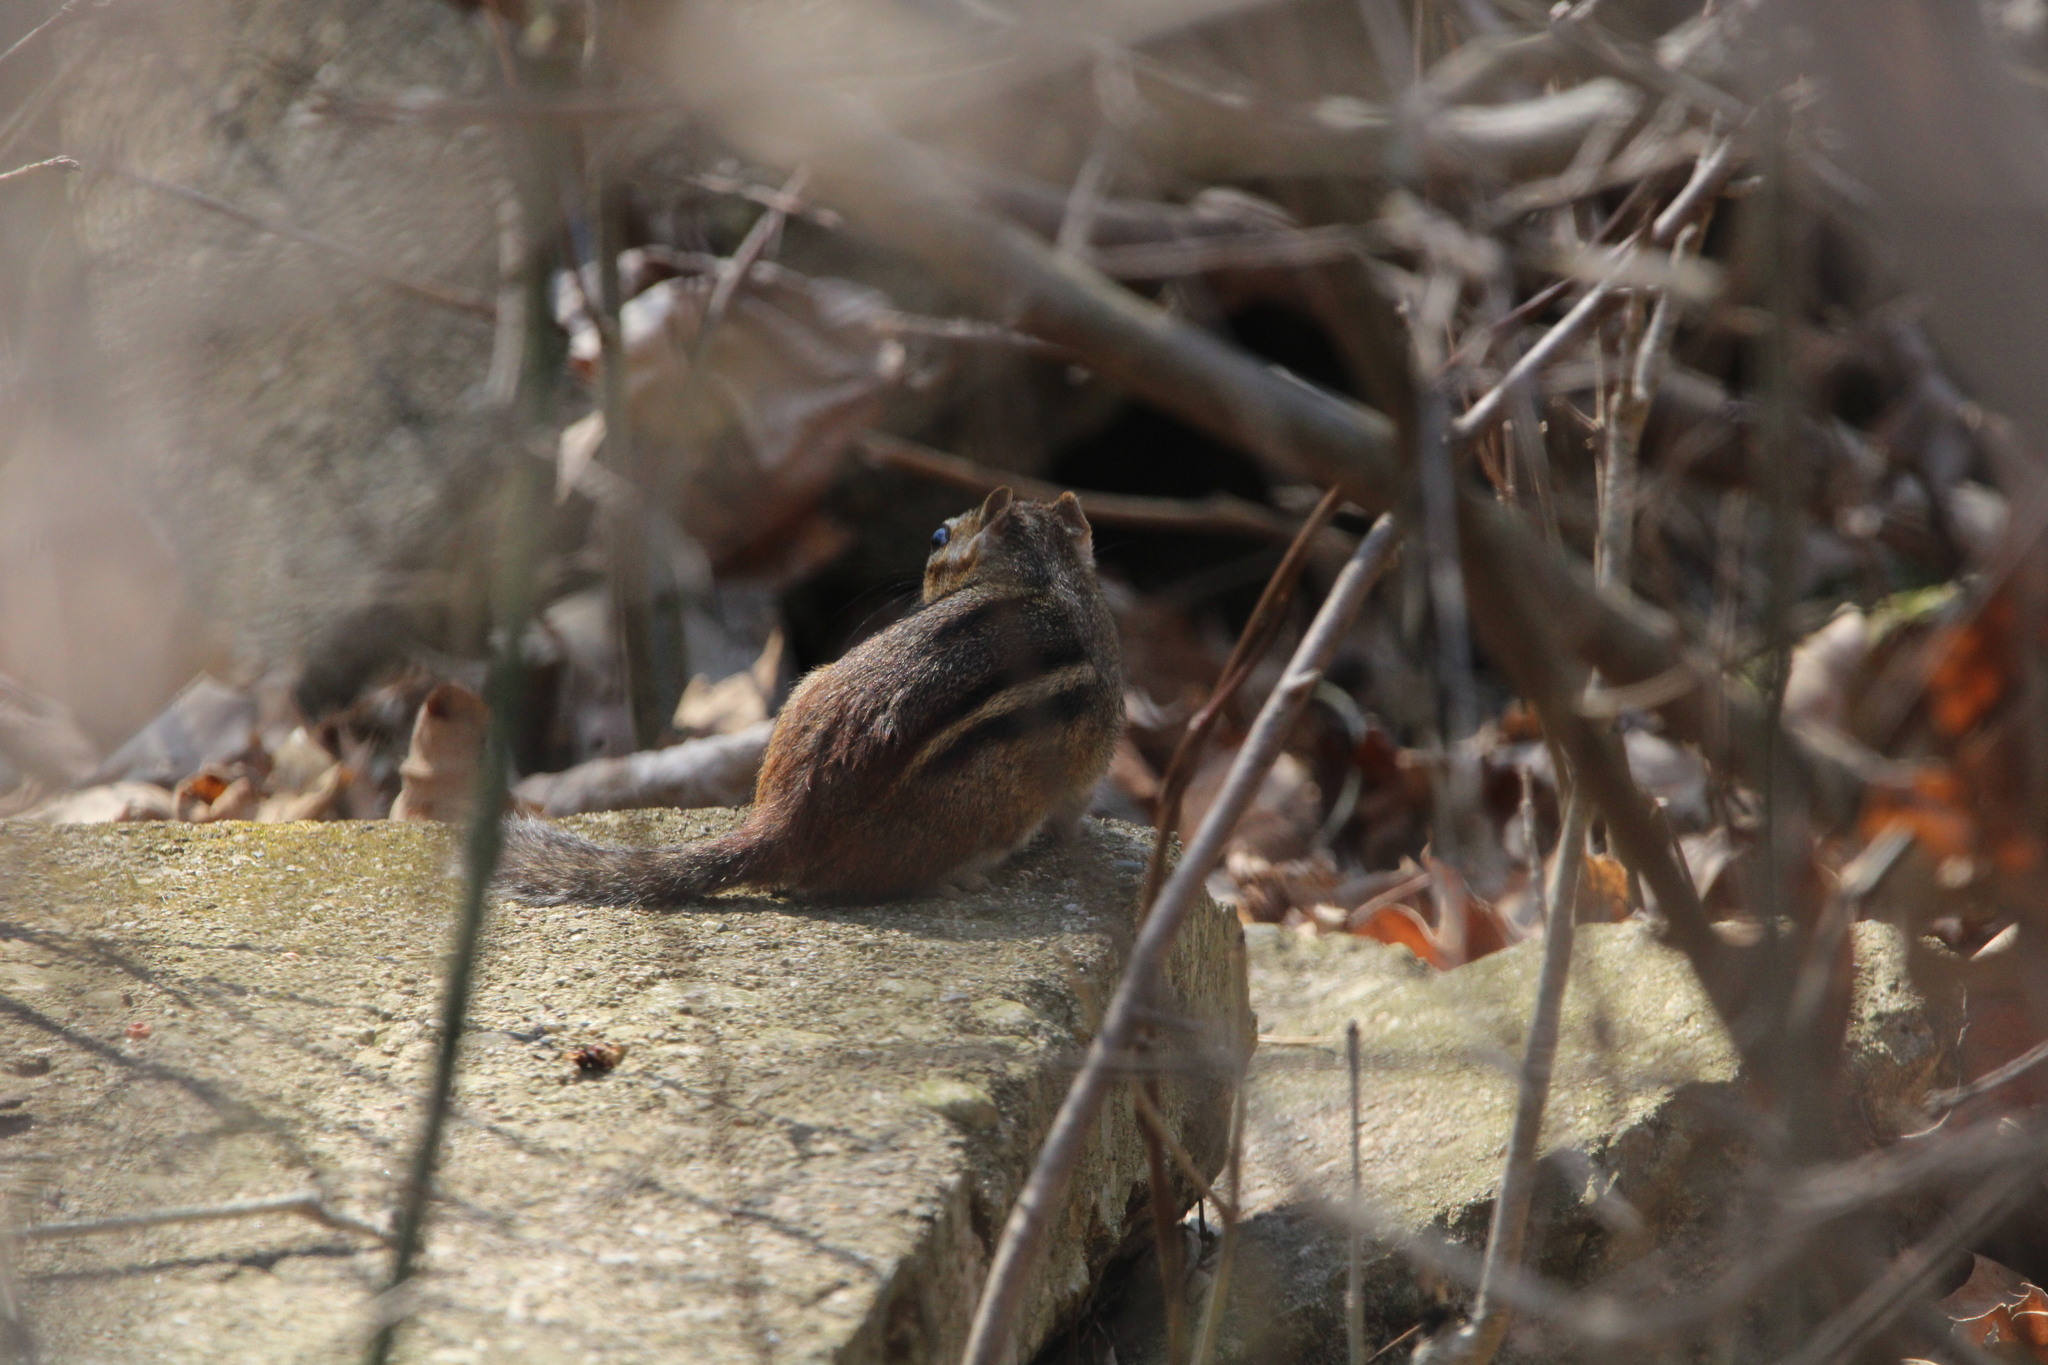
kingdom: Animalia
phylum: Chordata
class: Mammalia
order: Rodentia
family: Sciuridae
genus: Tamias
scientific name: Tamias striatus
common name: Eastern chipmunk
